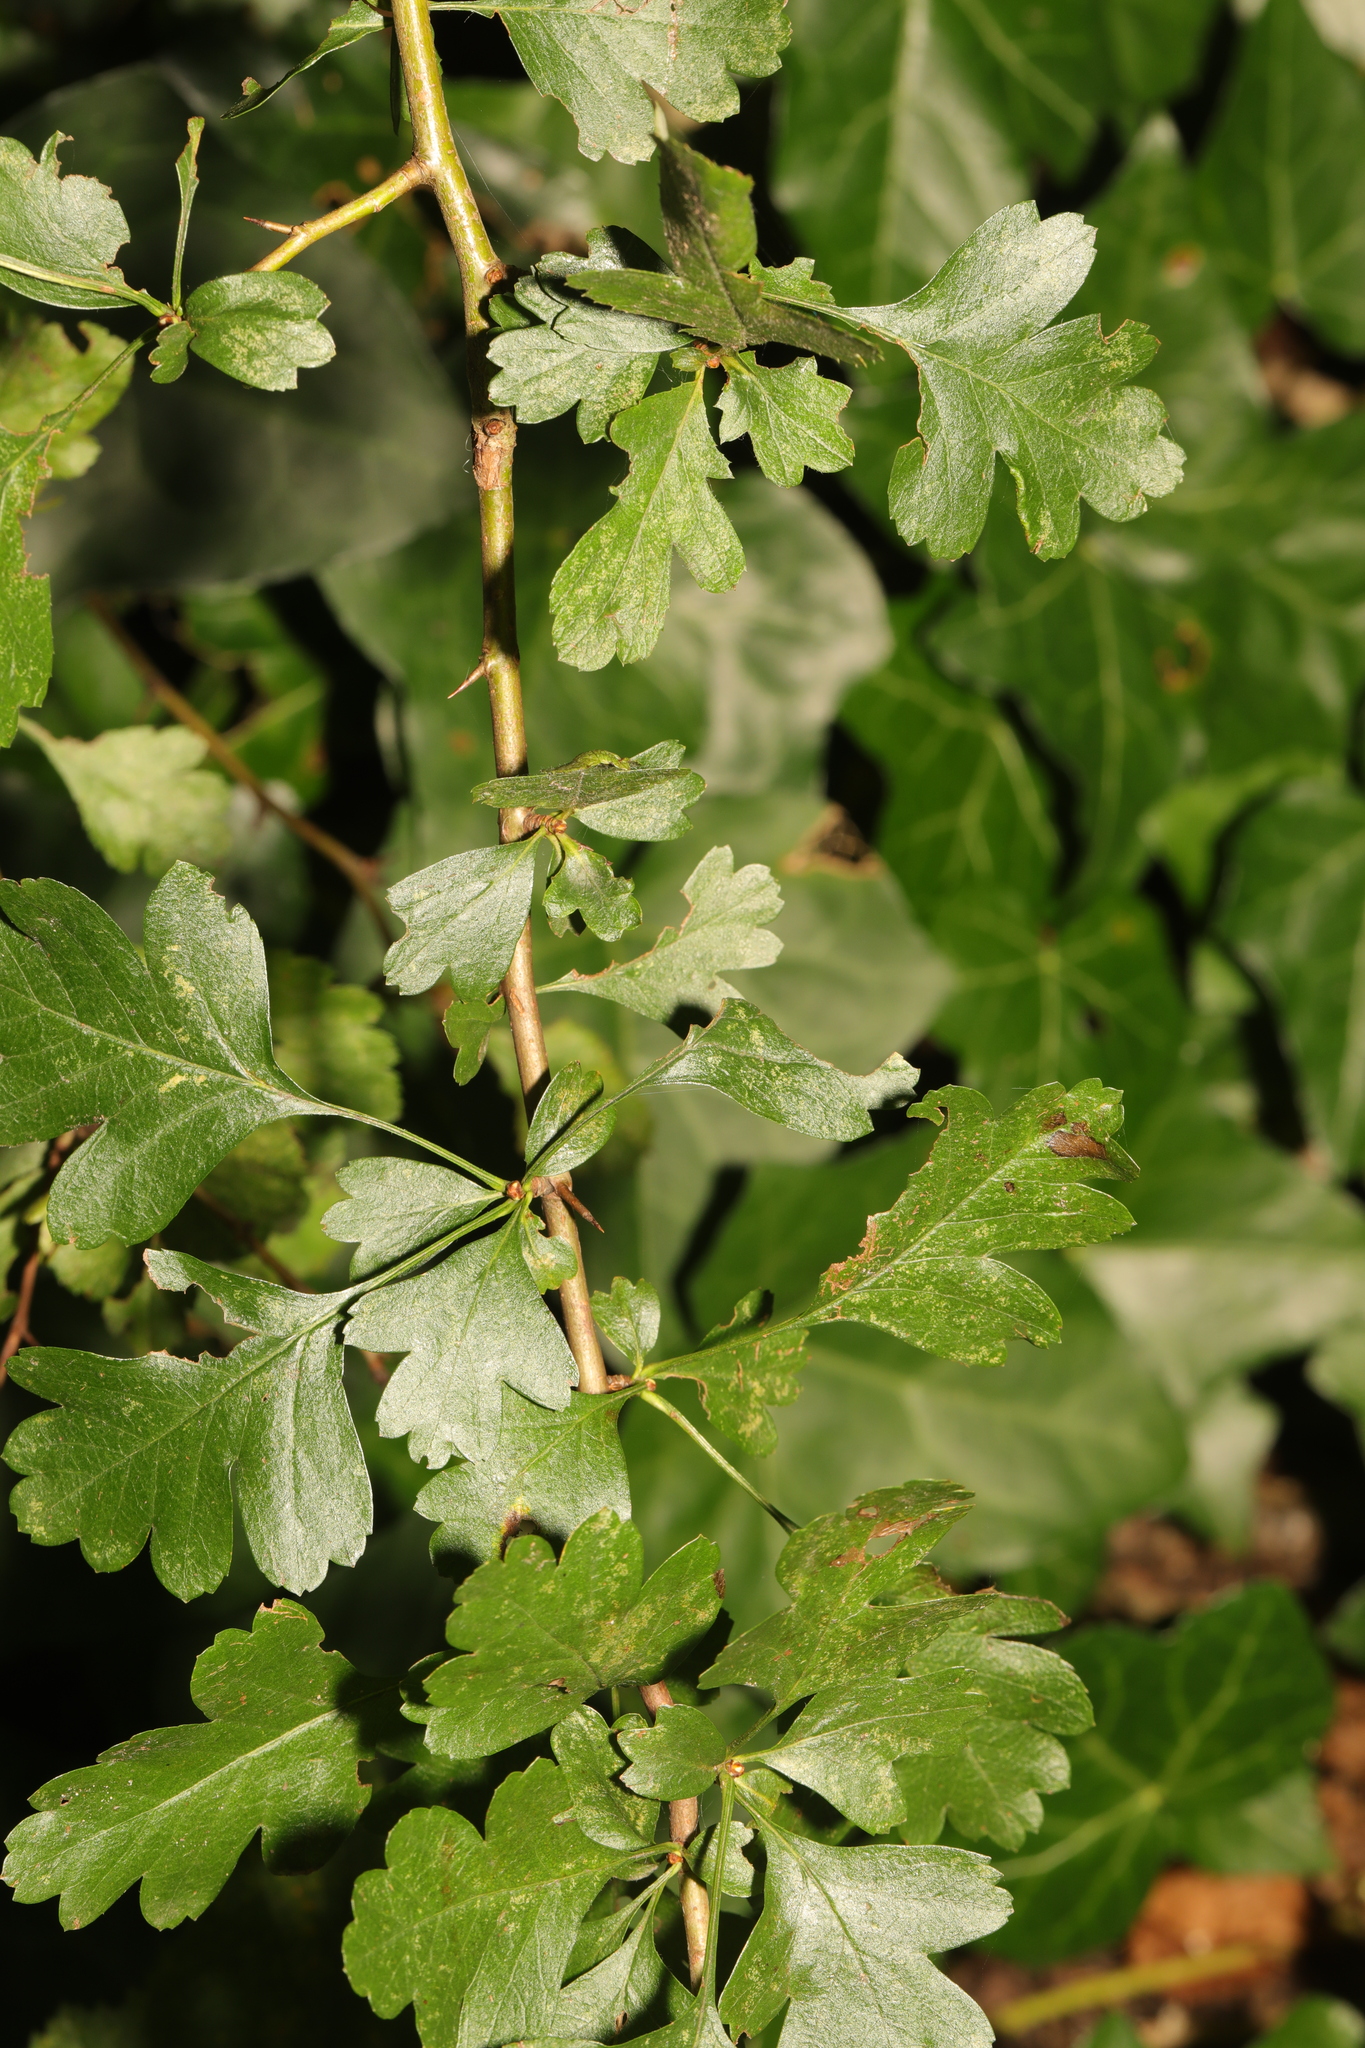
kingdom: Plantae
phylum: Tracheophyta
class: Magnoliopsida
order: Rosales
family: Rosaceae
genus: Crataegus
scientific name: Crataegus monogyna
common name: Hawthorn
